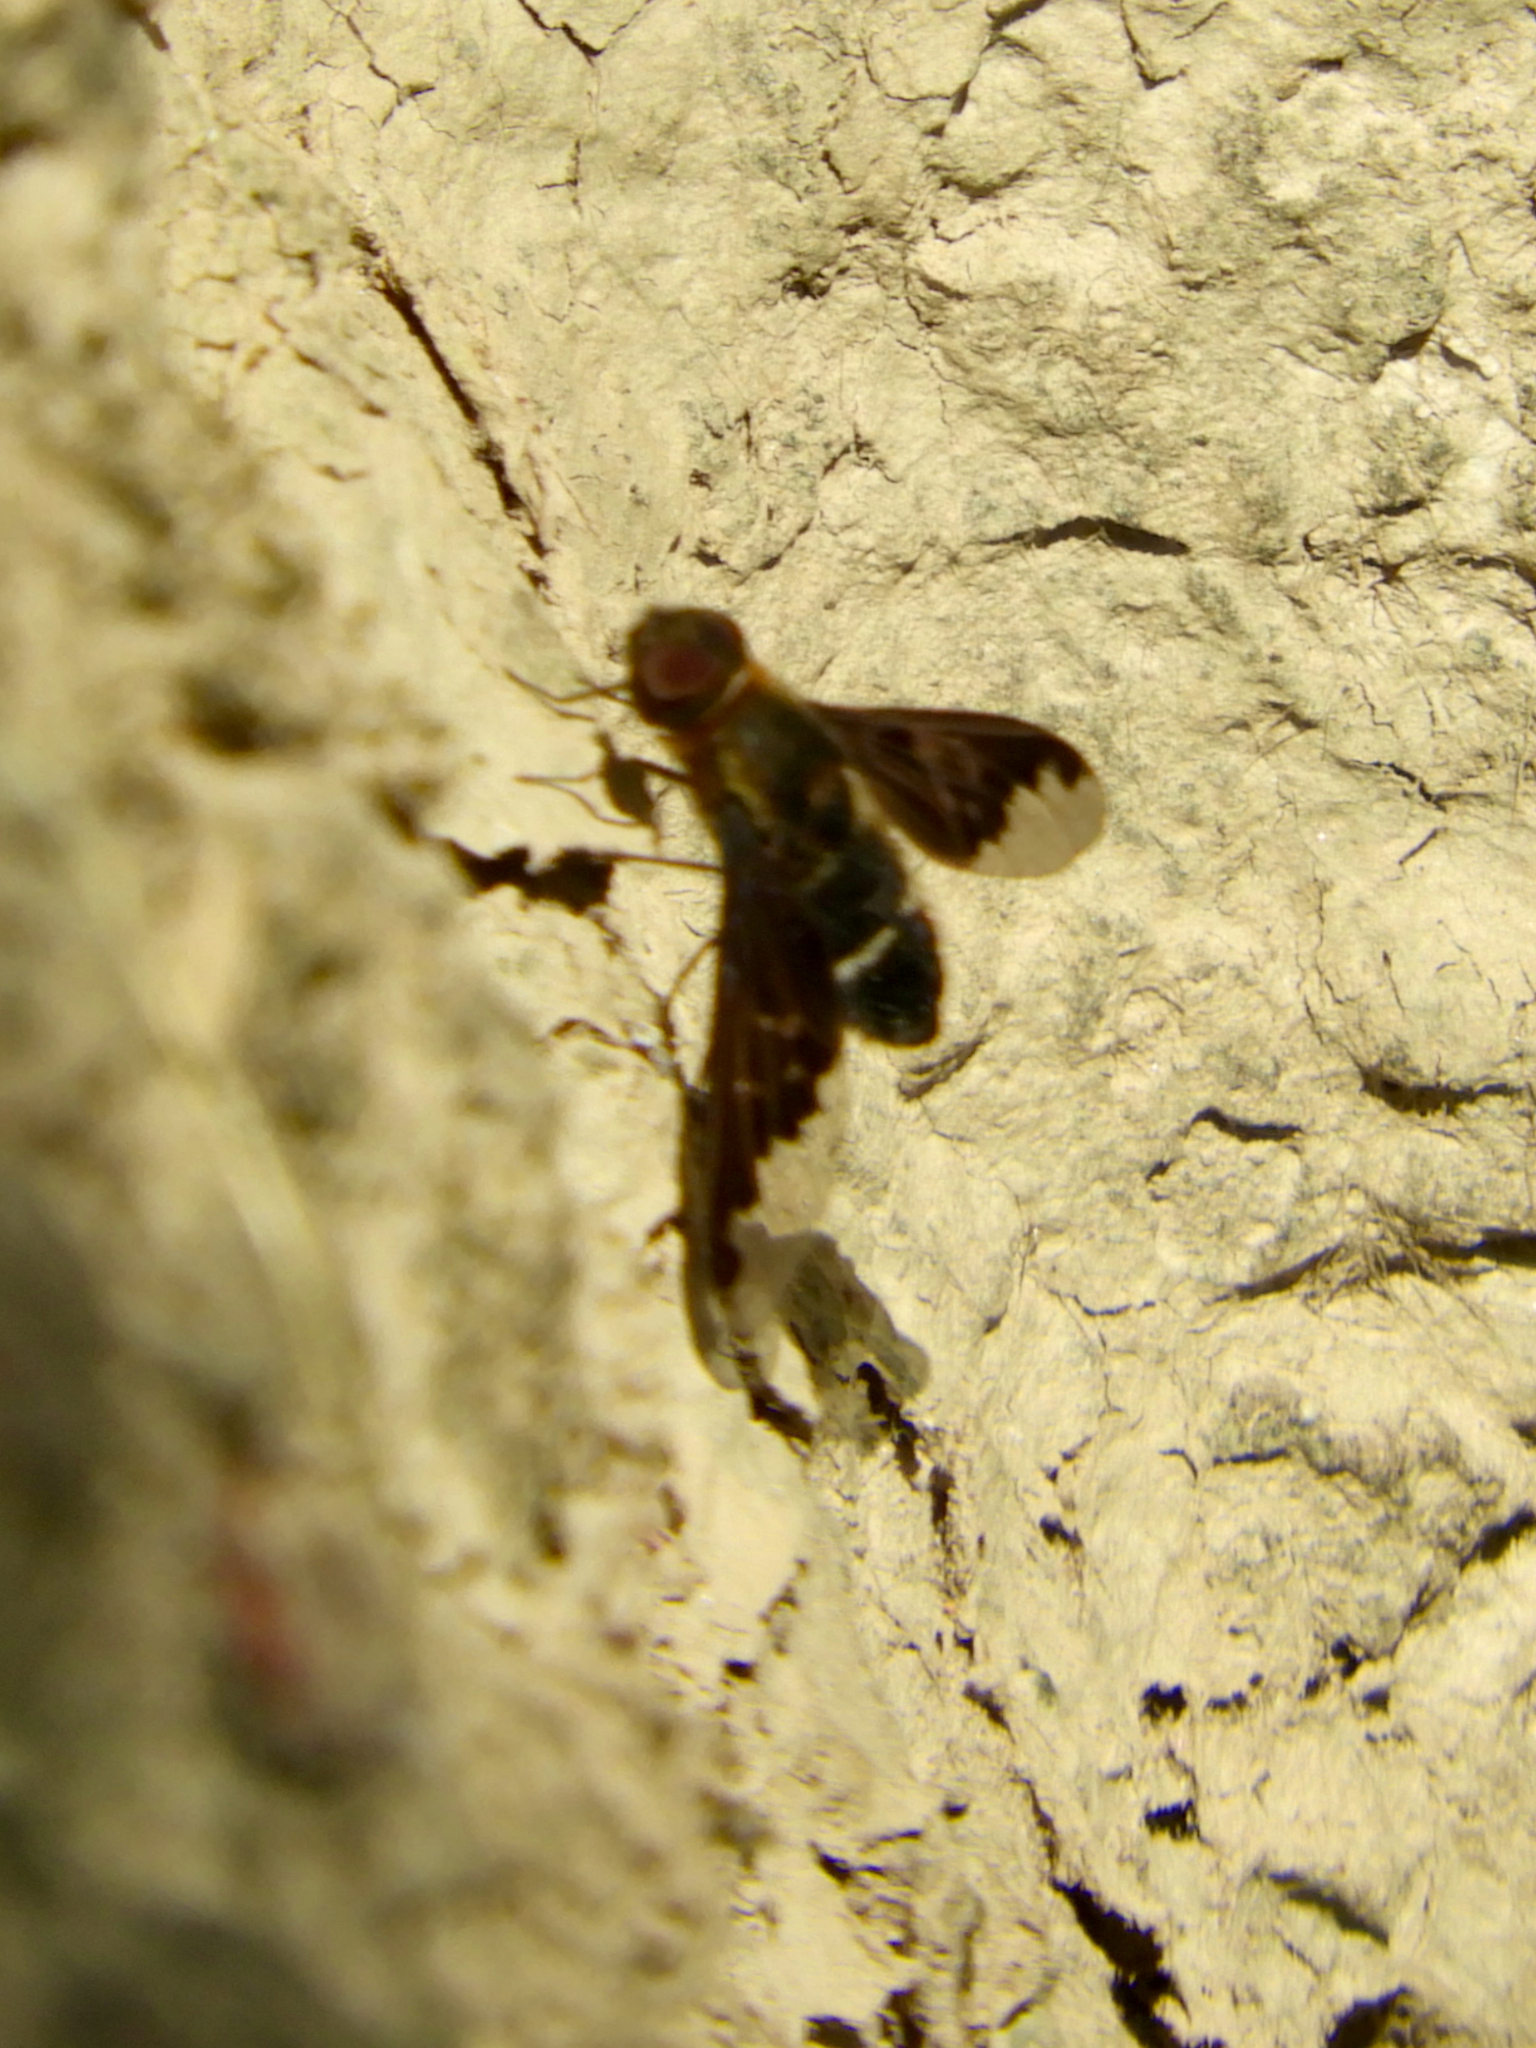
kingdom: Animalia
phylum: Arthropoda
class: Insecta
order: Diptera
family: Bombyliidae
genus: Hemipenthes
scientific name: Hemipenthes velutina
